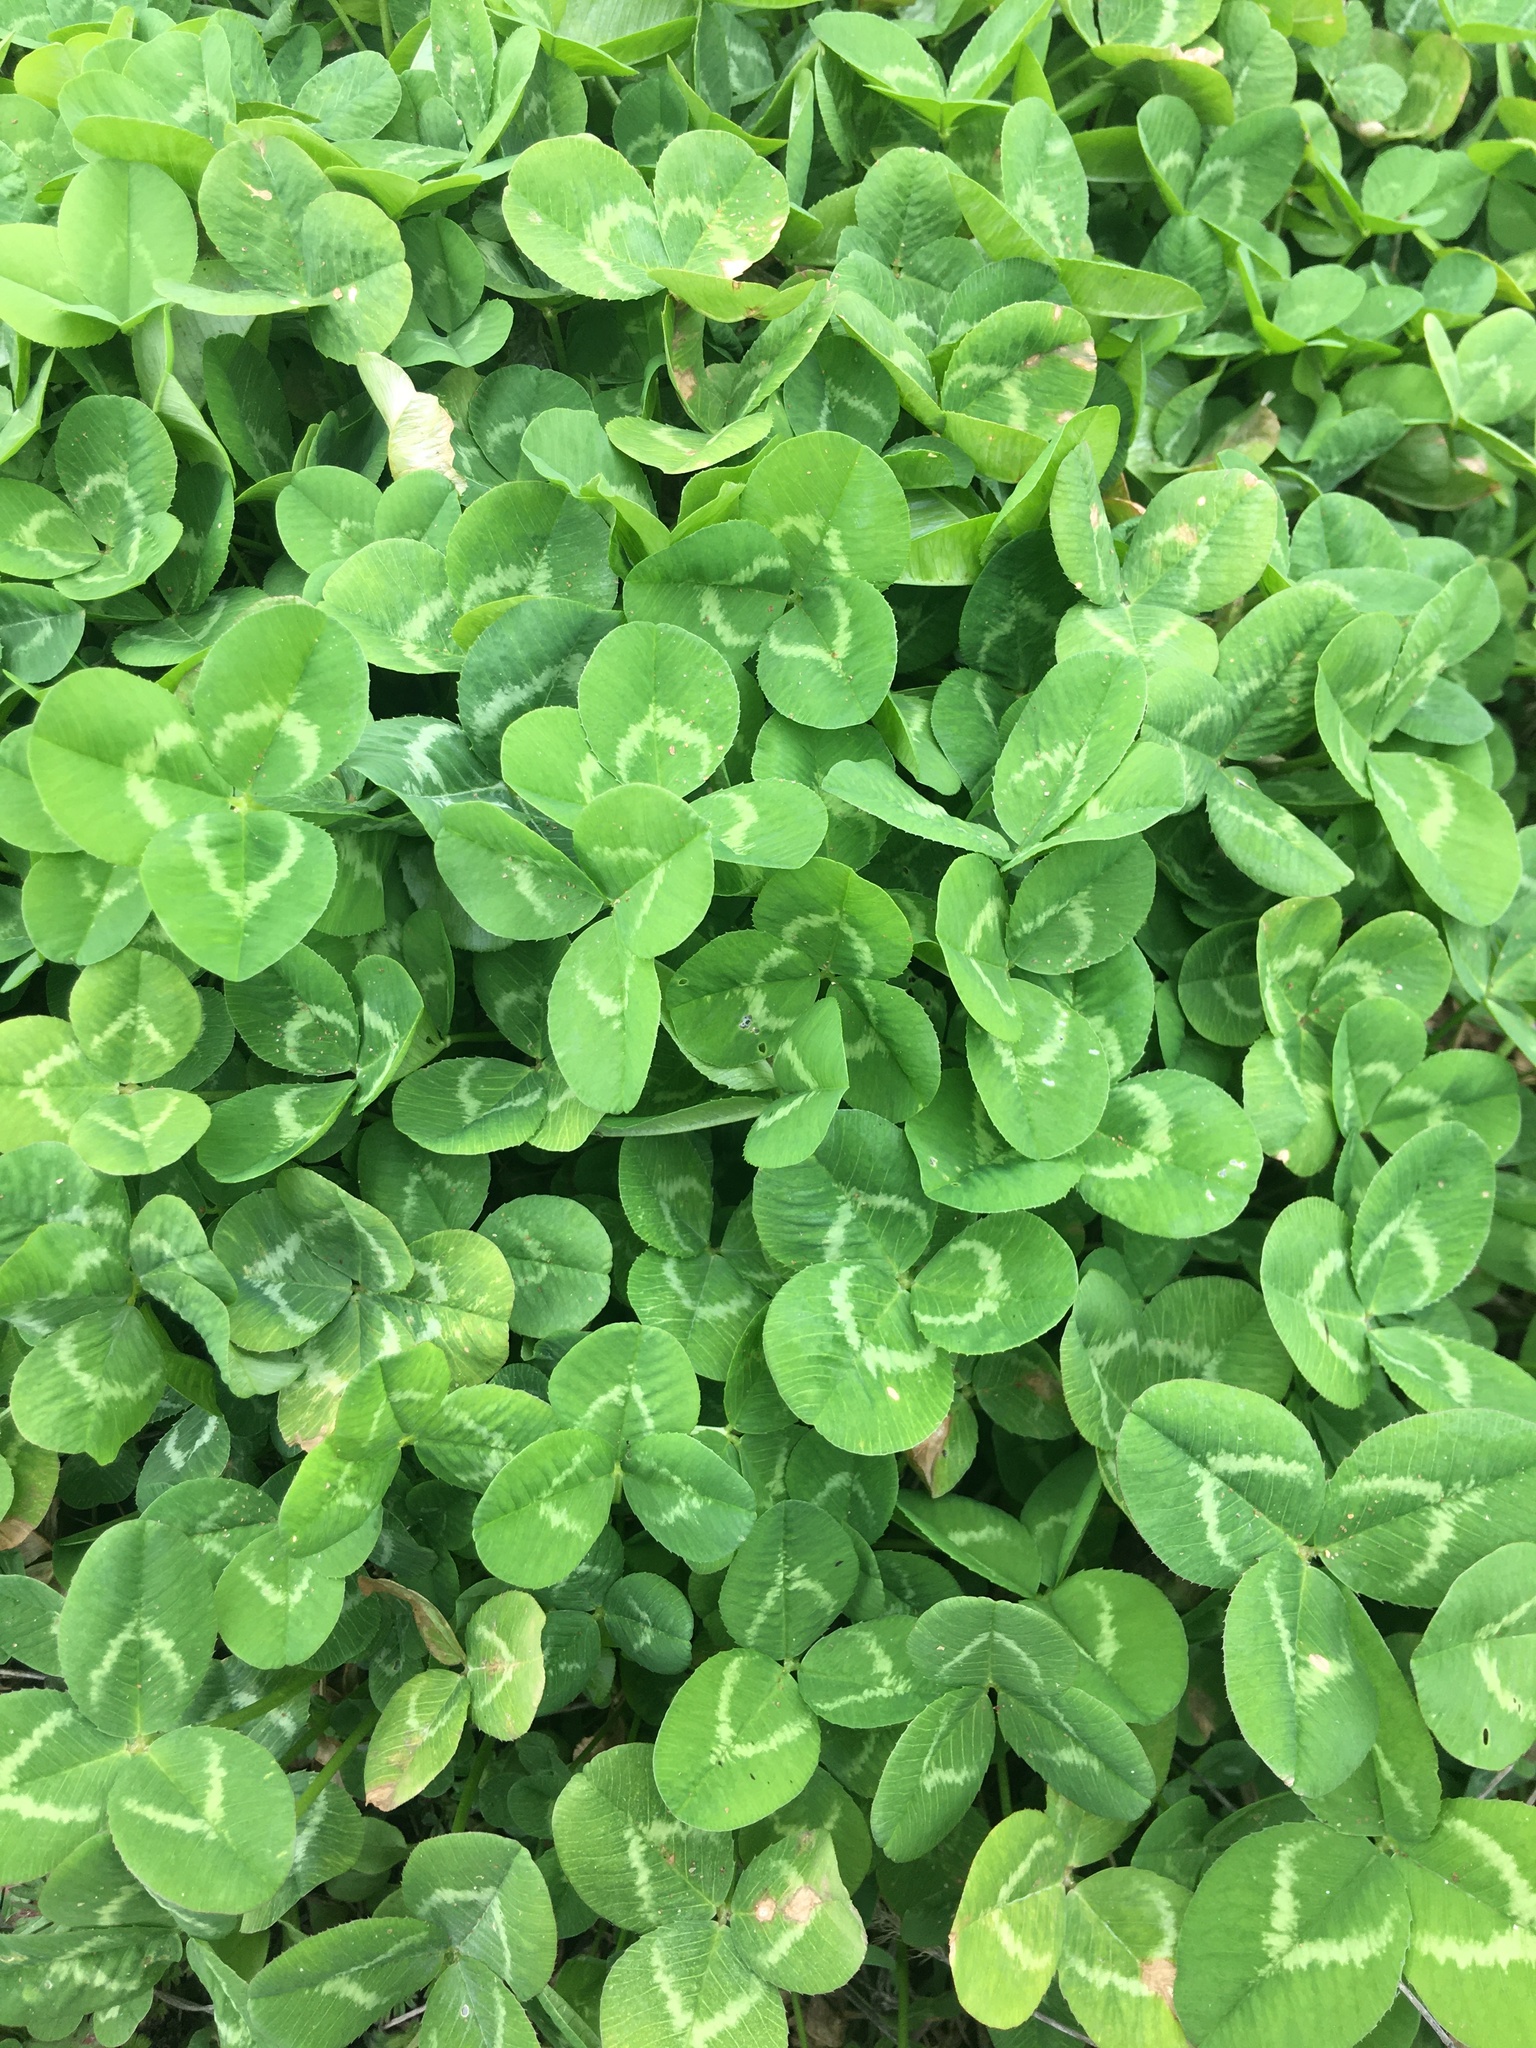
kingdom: Plantae
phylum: Tracheophyta
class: Magnoliopsida
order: Fabales
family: Fabaceae
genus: Trifolium
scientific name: Trifolium repens
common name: White clover
